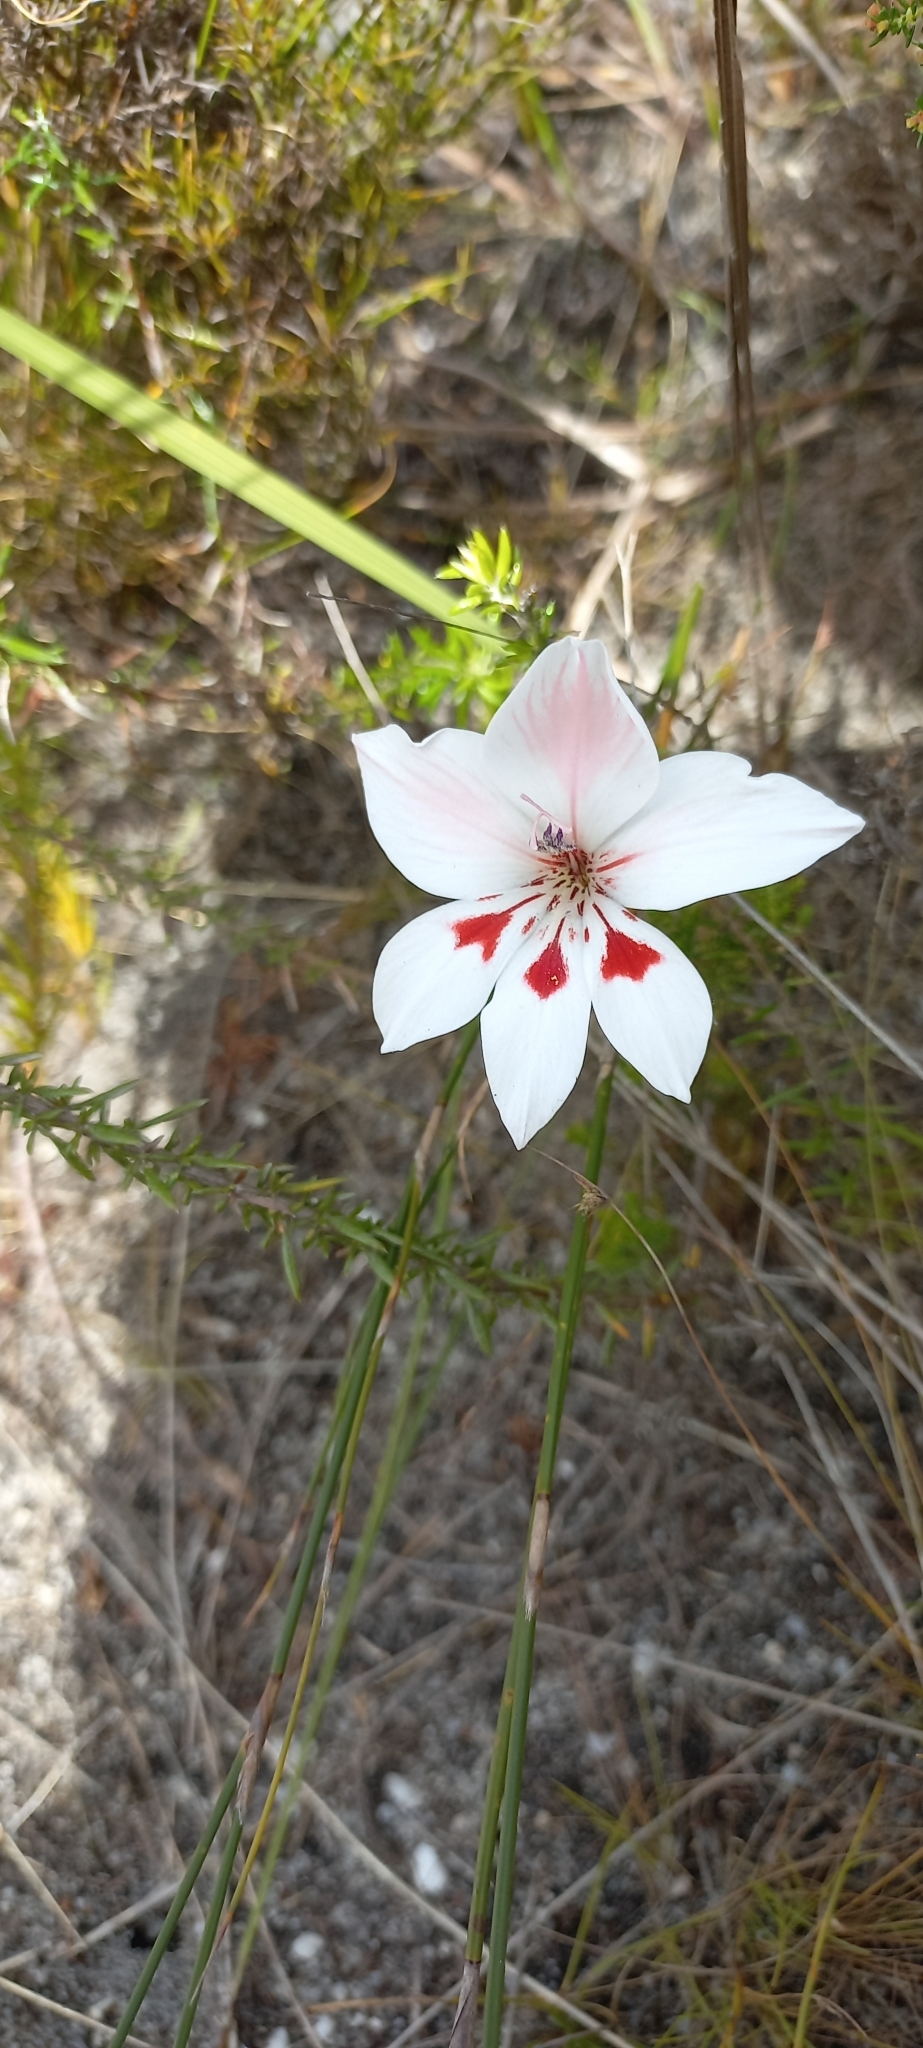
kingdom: Plantae
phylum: Tracheophyta
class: Liliopsida
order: Asparagales
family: Iridaceae
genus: Gladiolus
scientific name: Gladiolus debilis
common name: Painted-lady
